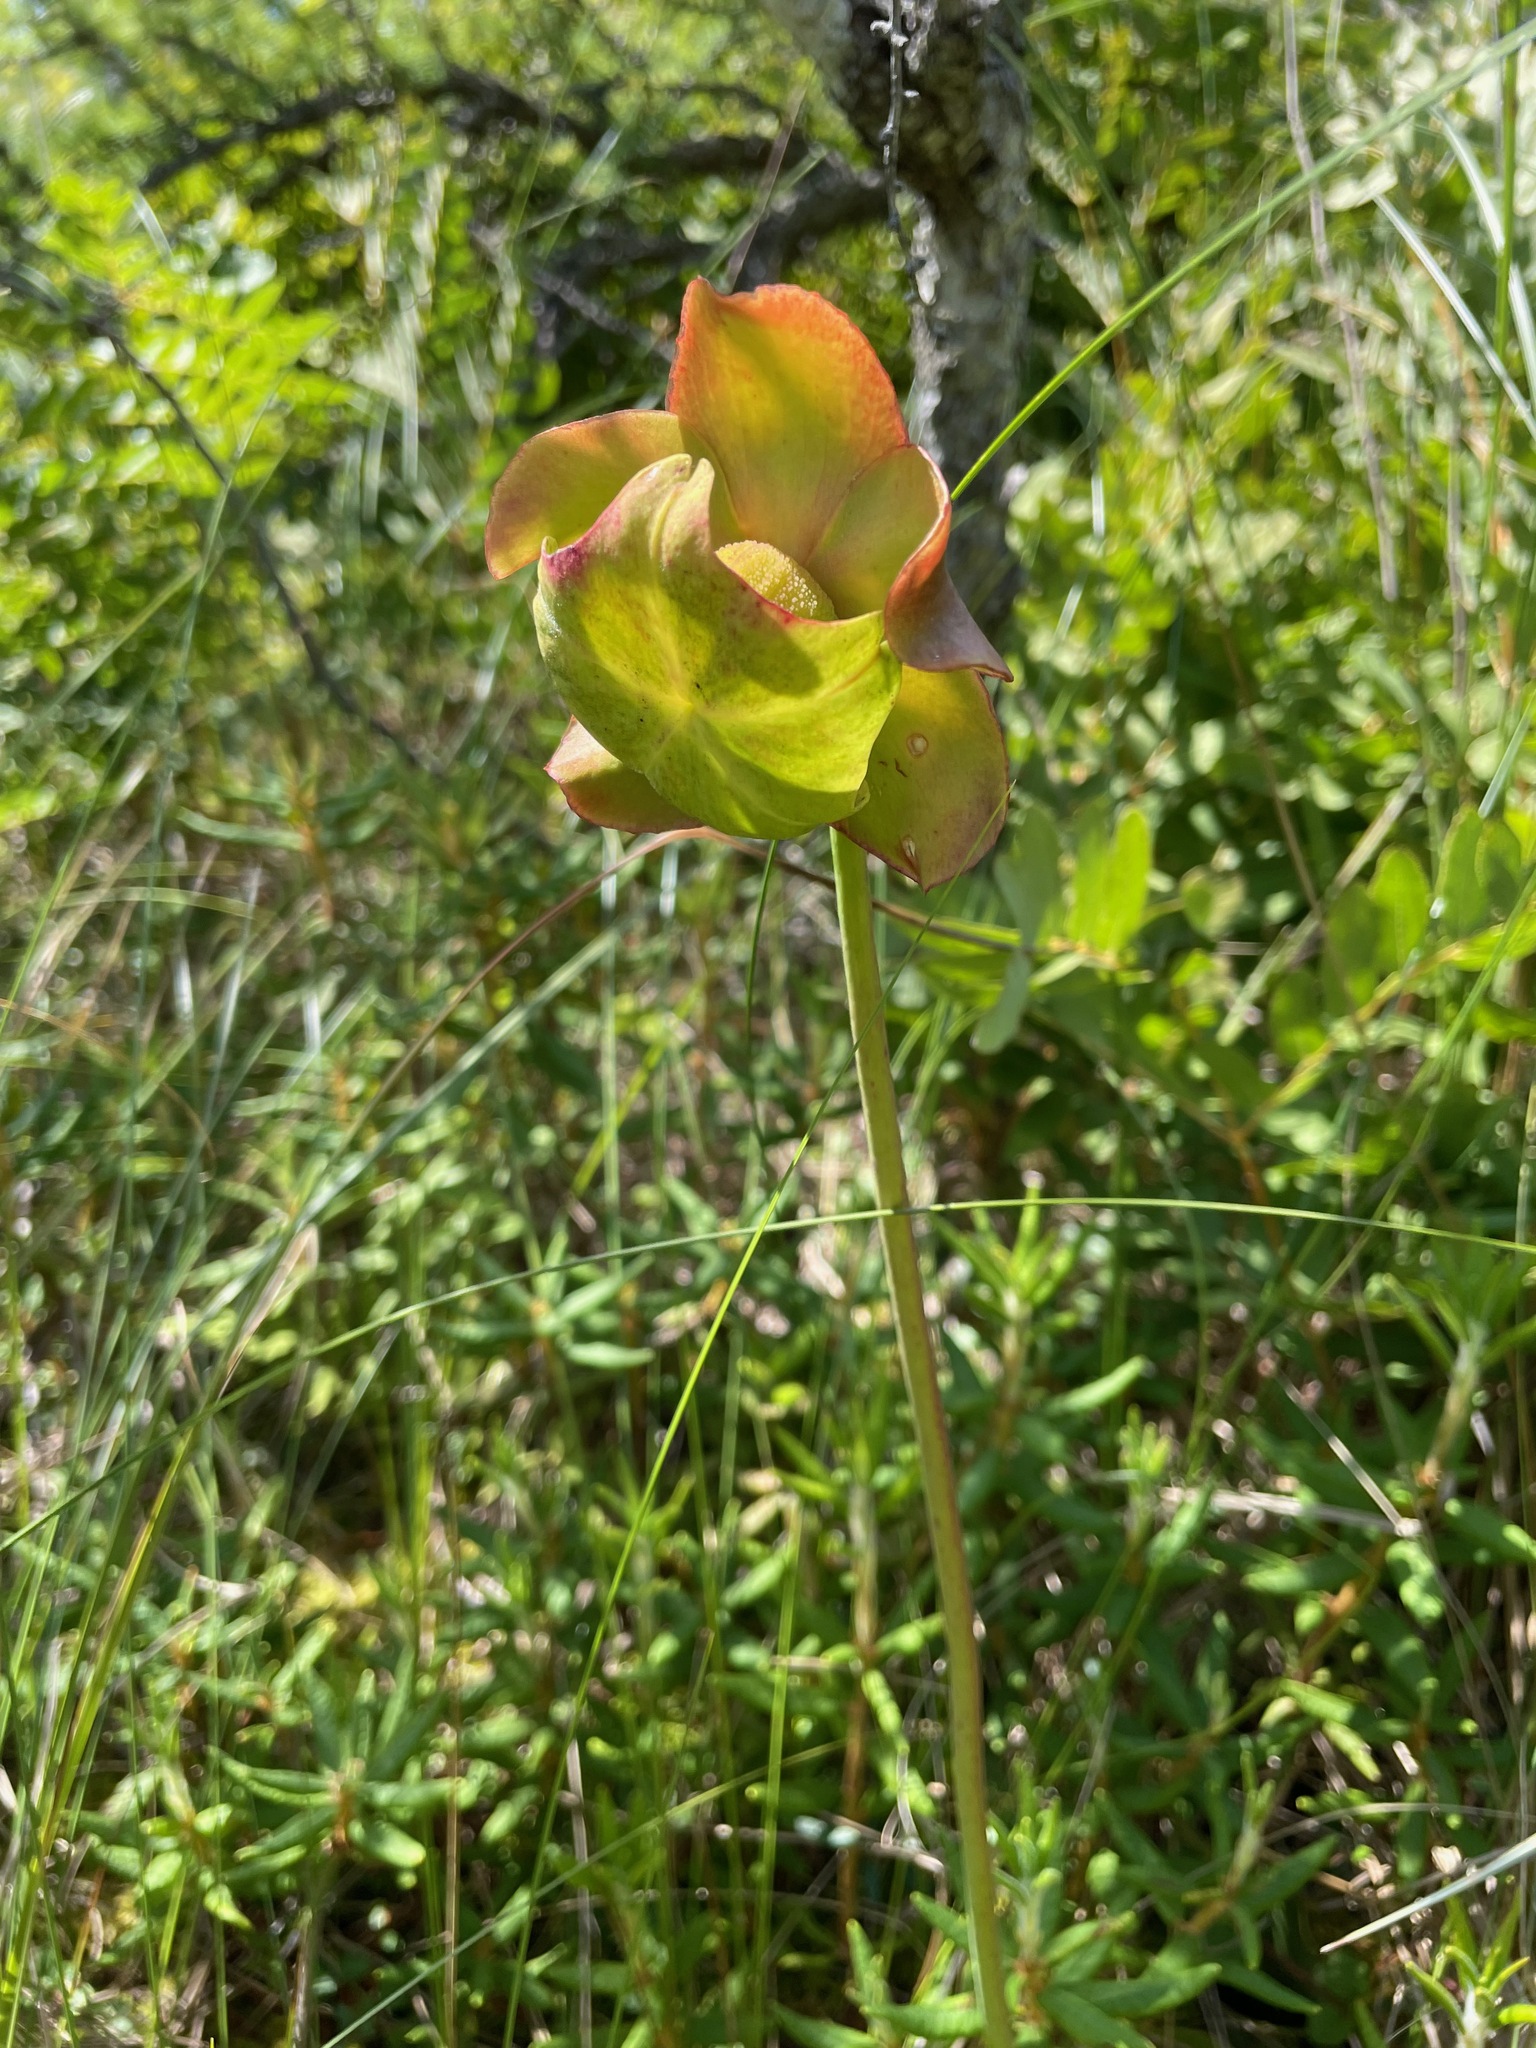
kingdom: Plantae
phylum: Tracheophyta
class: Magnoliopsida
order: Ericales
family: Sarraceniaceae
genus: Sarracenia
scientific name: Sarracenia purpurea
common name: Pitcherplant
